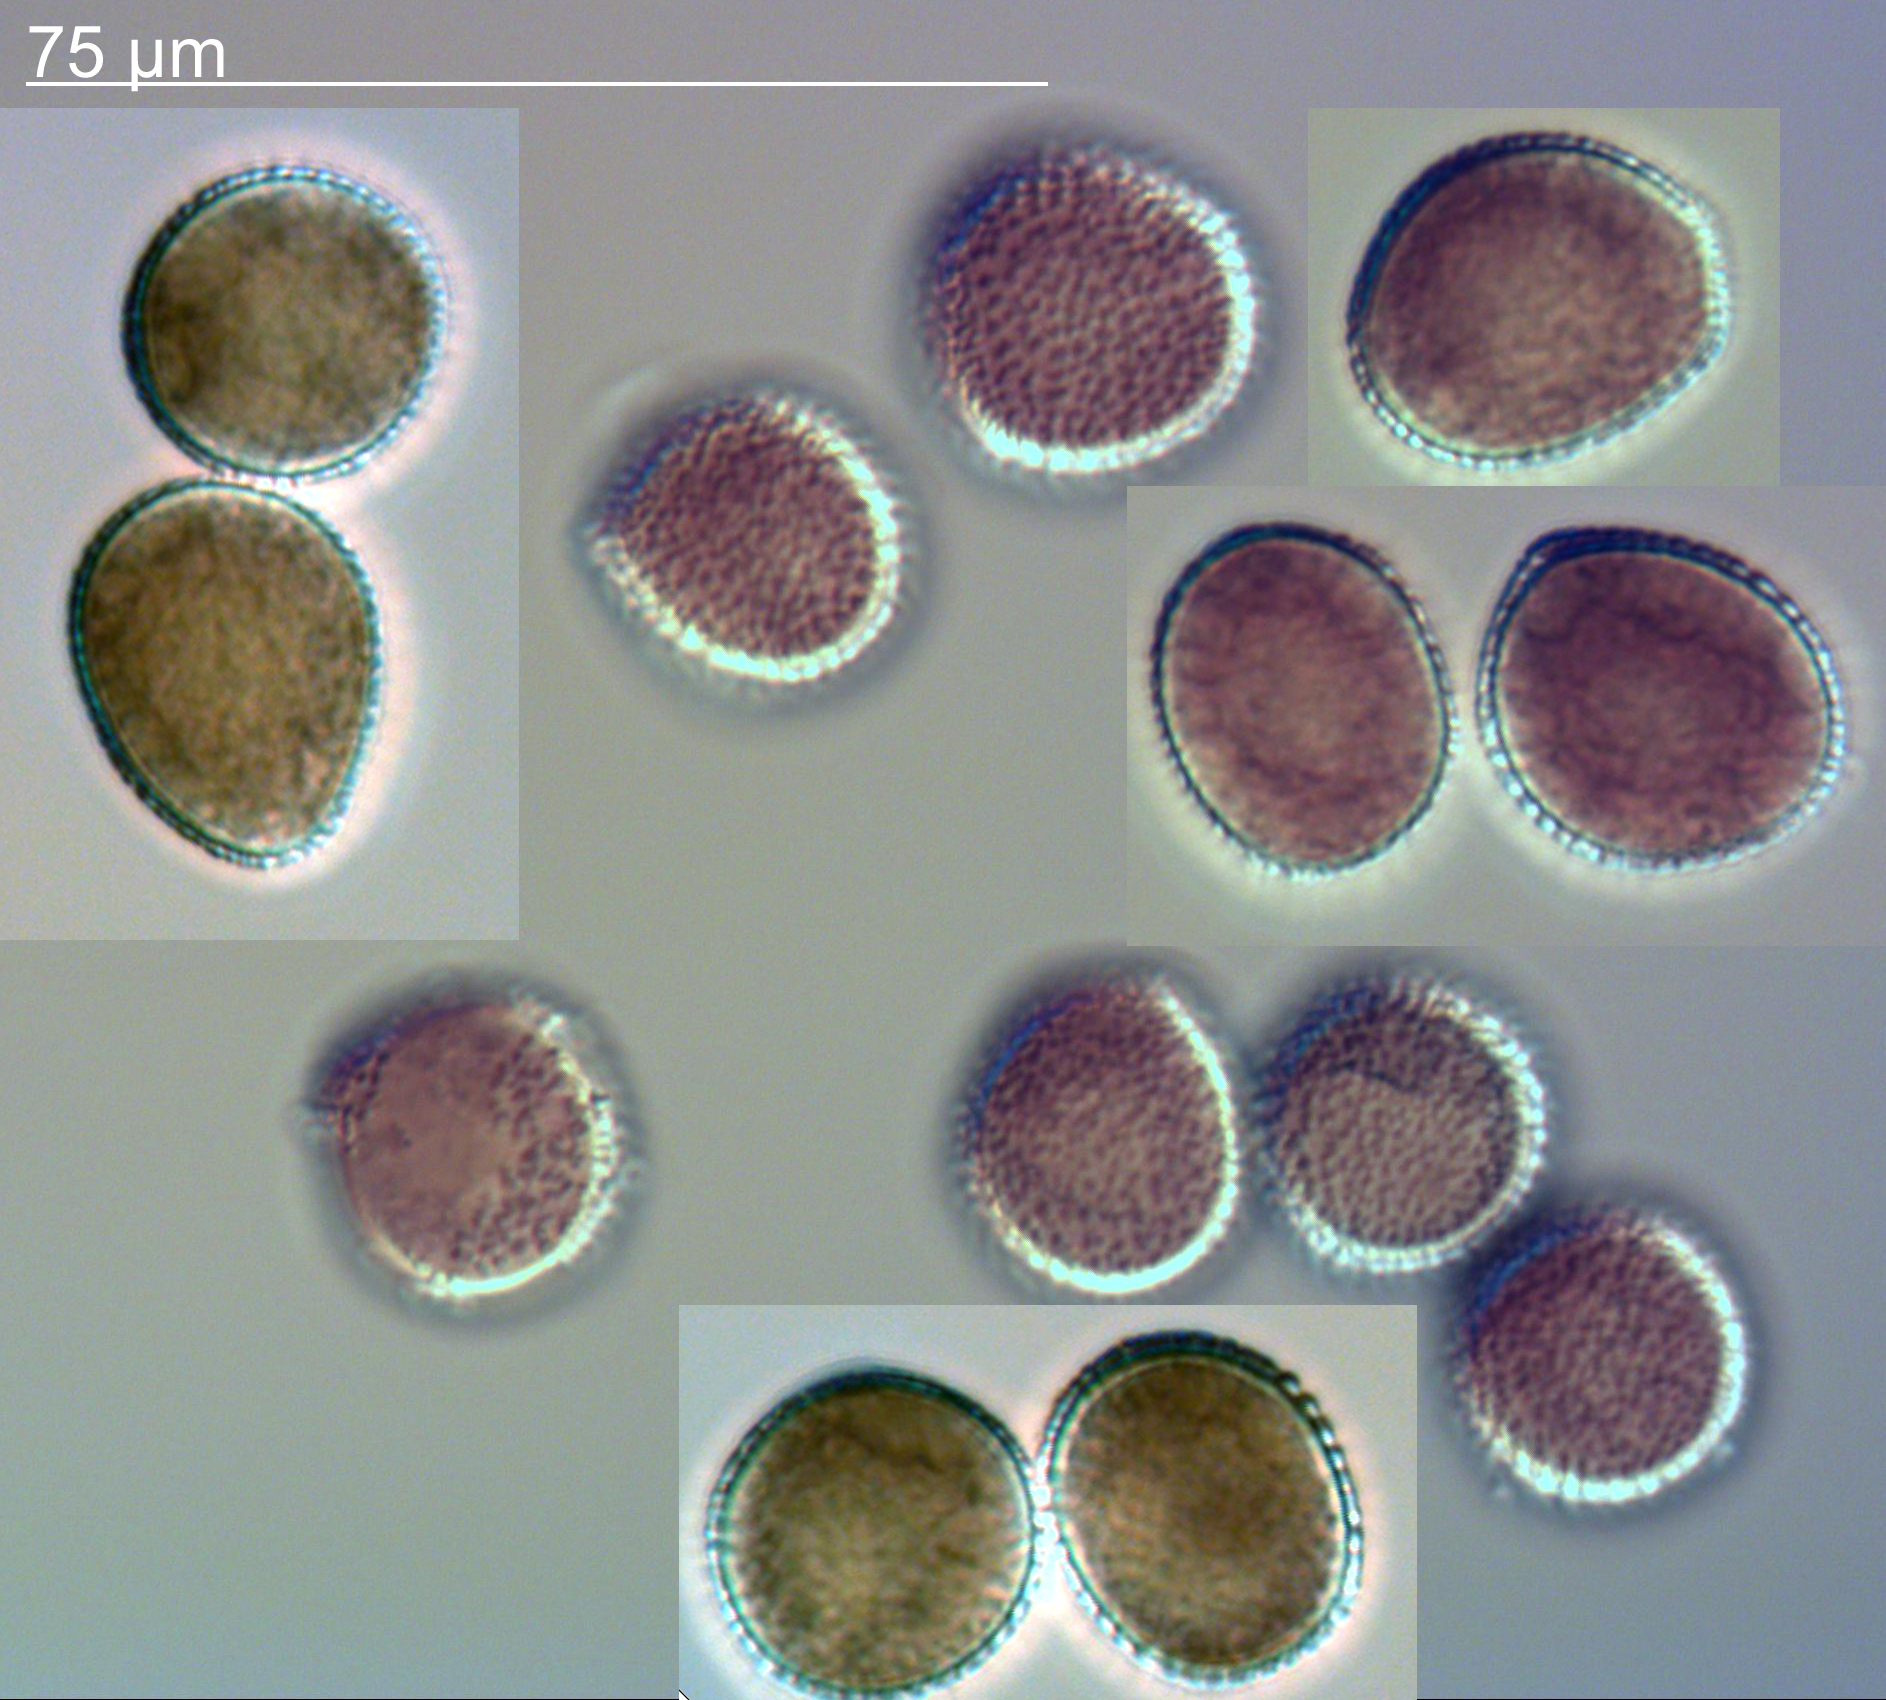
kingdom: Fungi
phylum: Basidiomycota
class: Pucciniomycetes
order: Pucciniales
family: Coleosporiaceae
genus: Coleosporium
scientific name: Coleosporium tussilaginis
